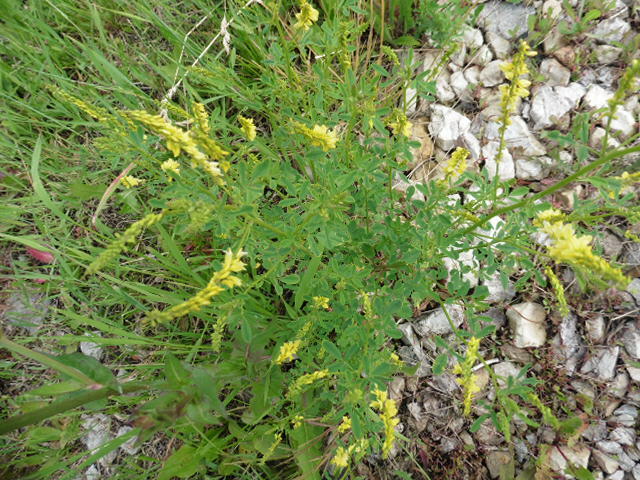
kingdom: Plantae
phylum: Tracheophyta
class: Magnoliopsida
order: Fabales
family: Fabaceae
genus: Melilotus
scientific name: Melilotus officinalis
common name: Sweetclover
